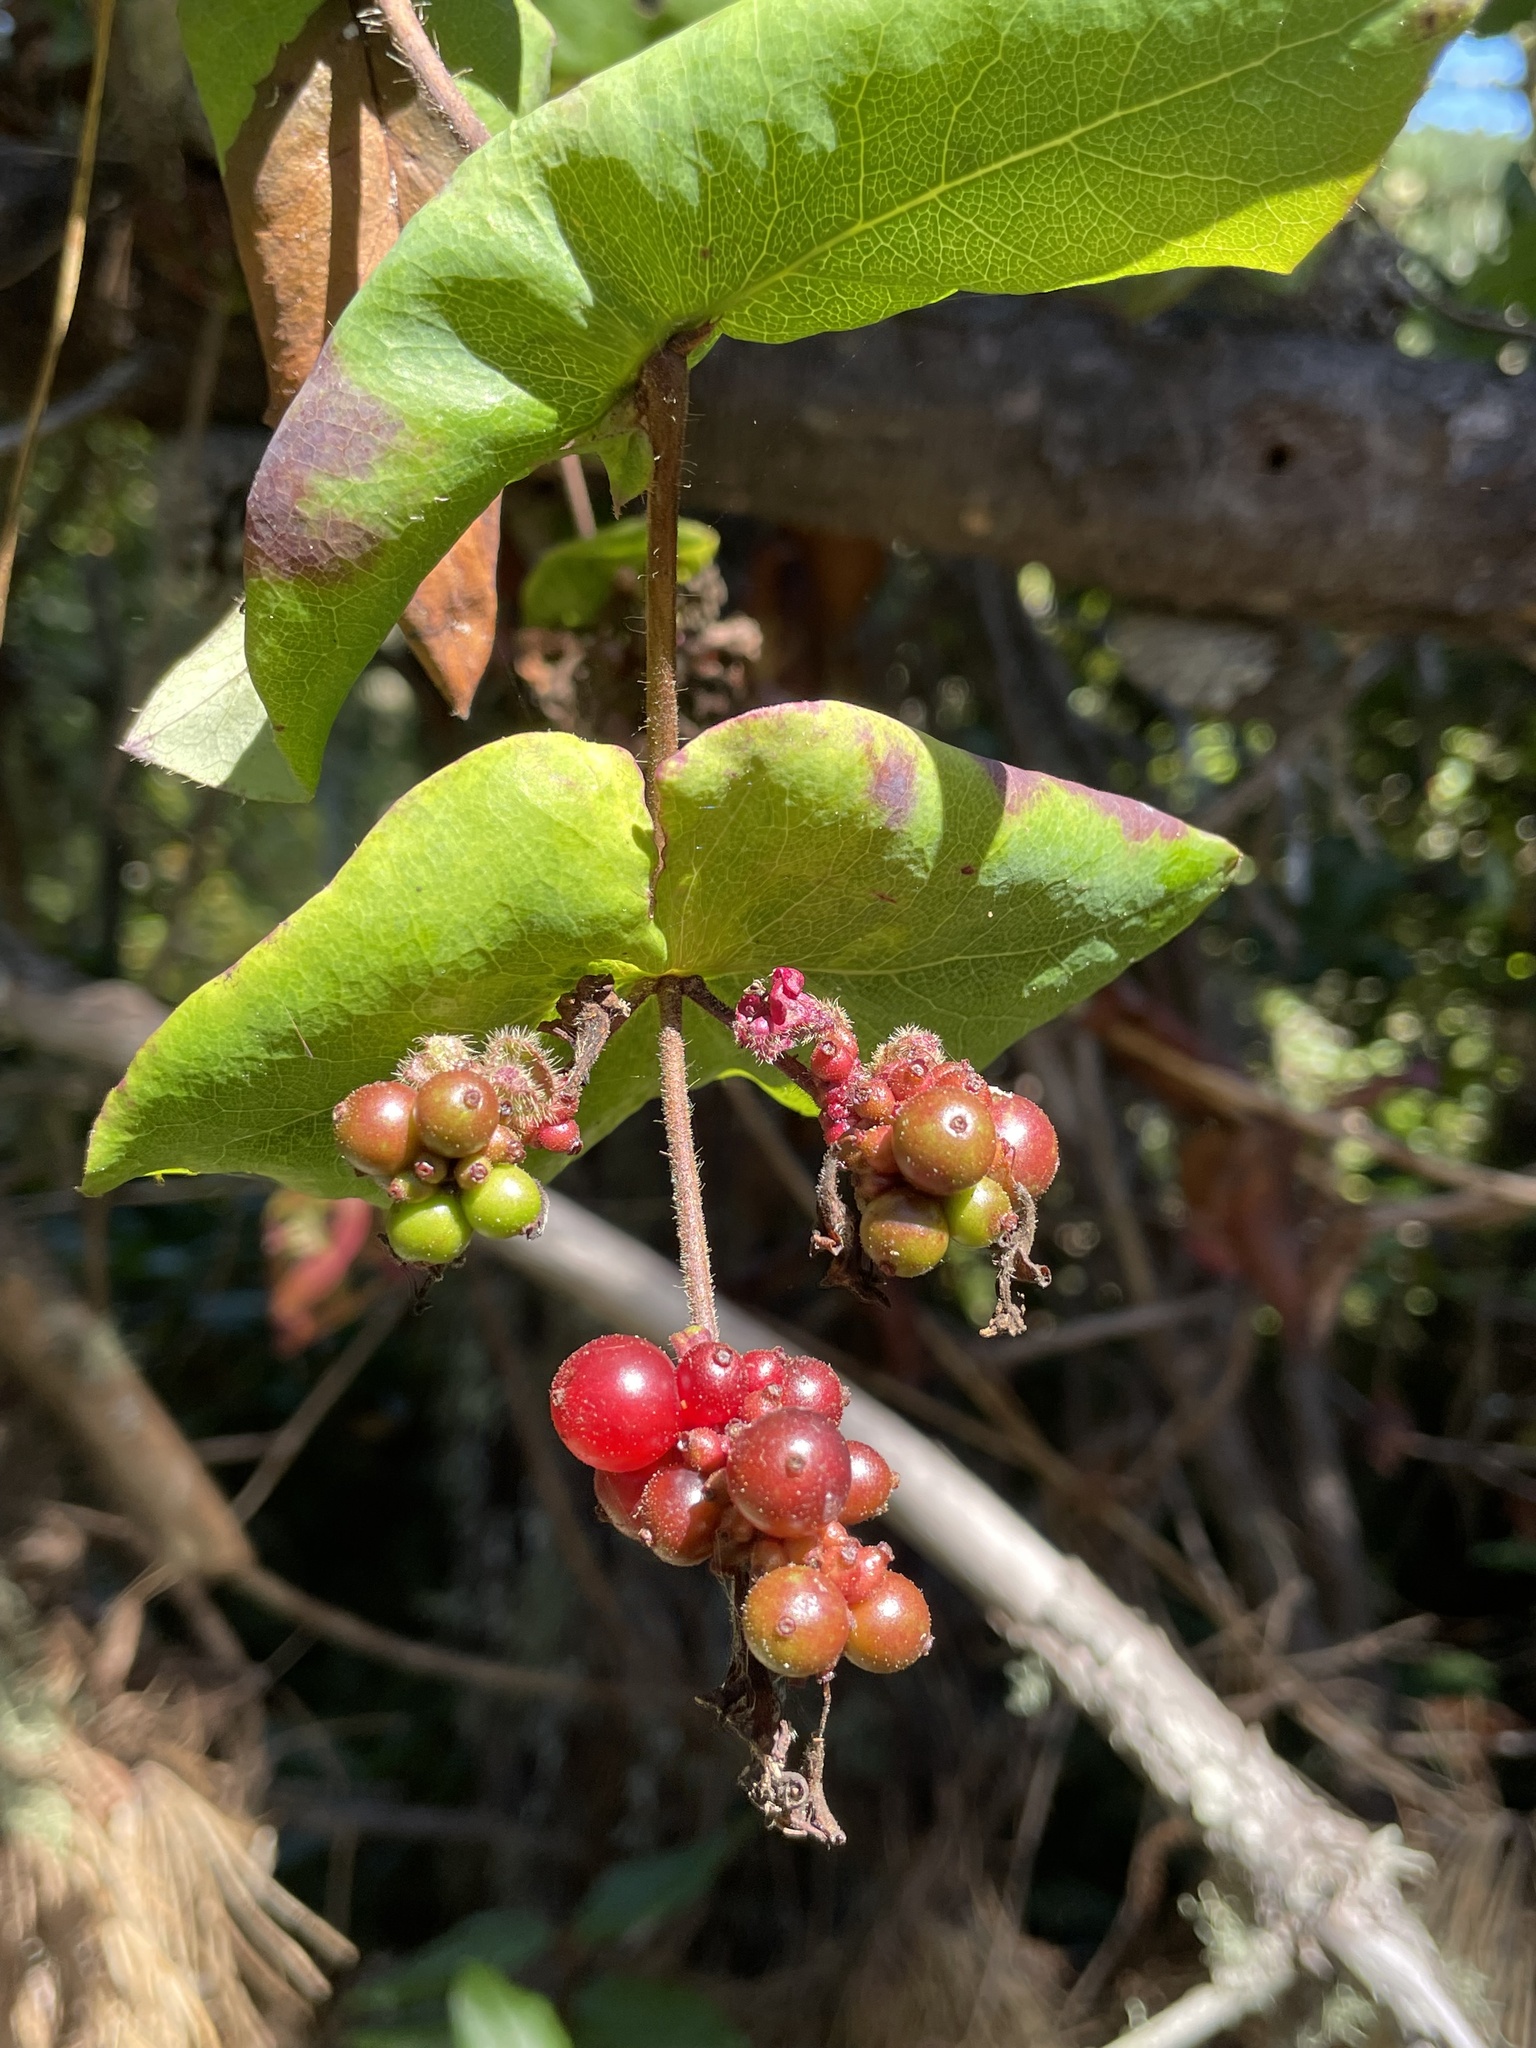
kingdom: Plantae
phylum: Tracheophyta
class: Magnoliopsida
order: Dipsacales
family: Caprifoliaceae
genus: Lonicera
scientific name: Lonicera hispidula
